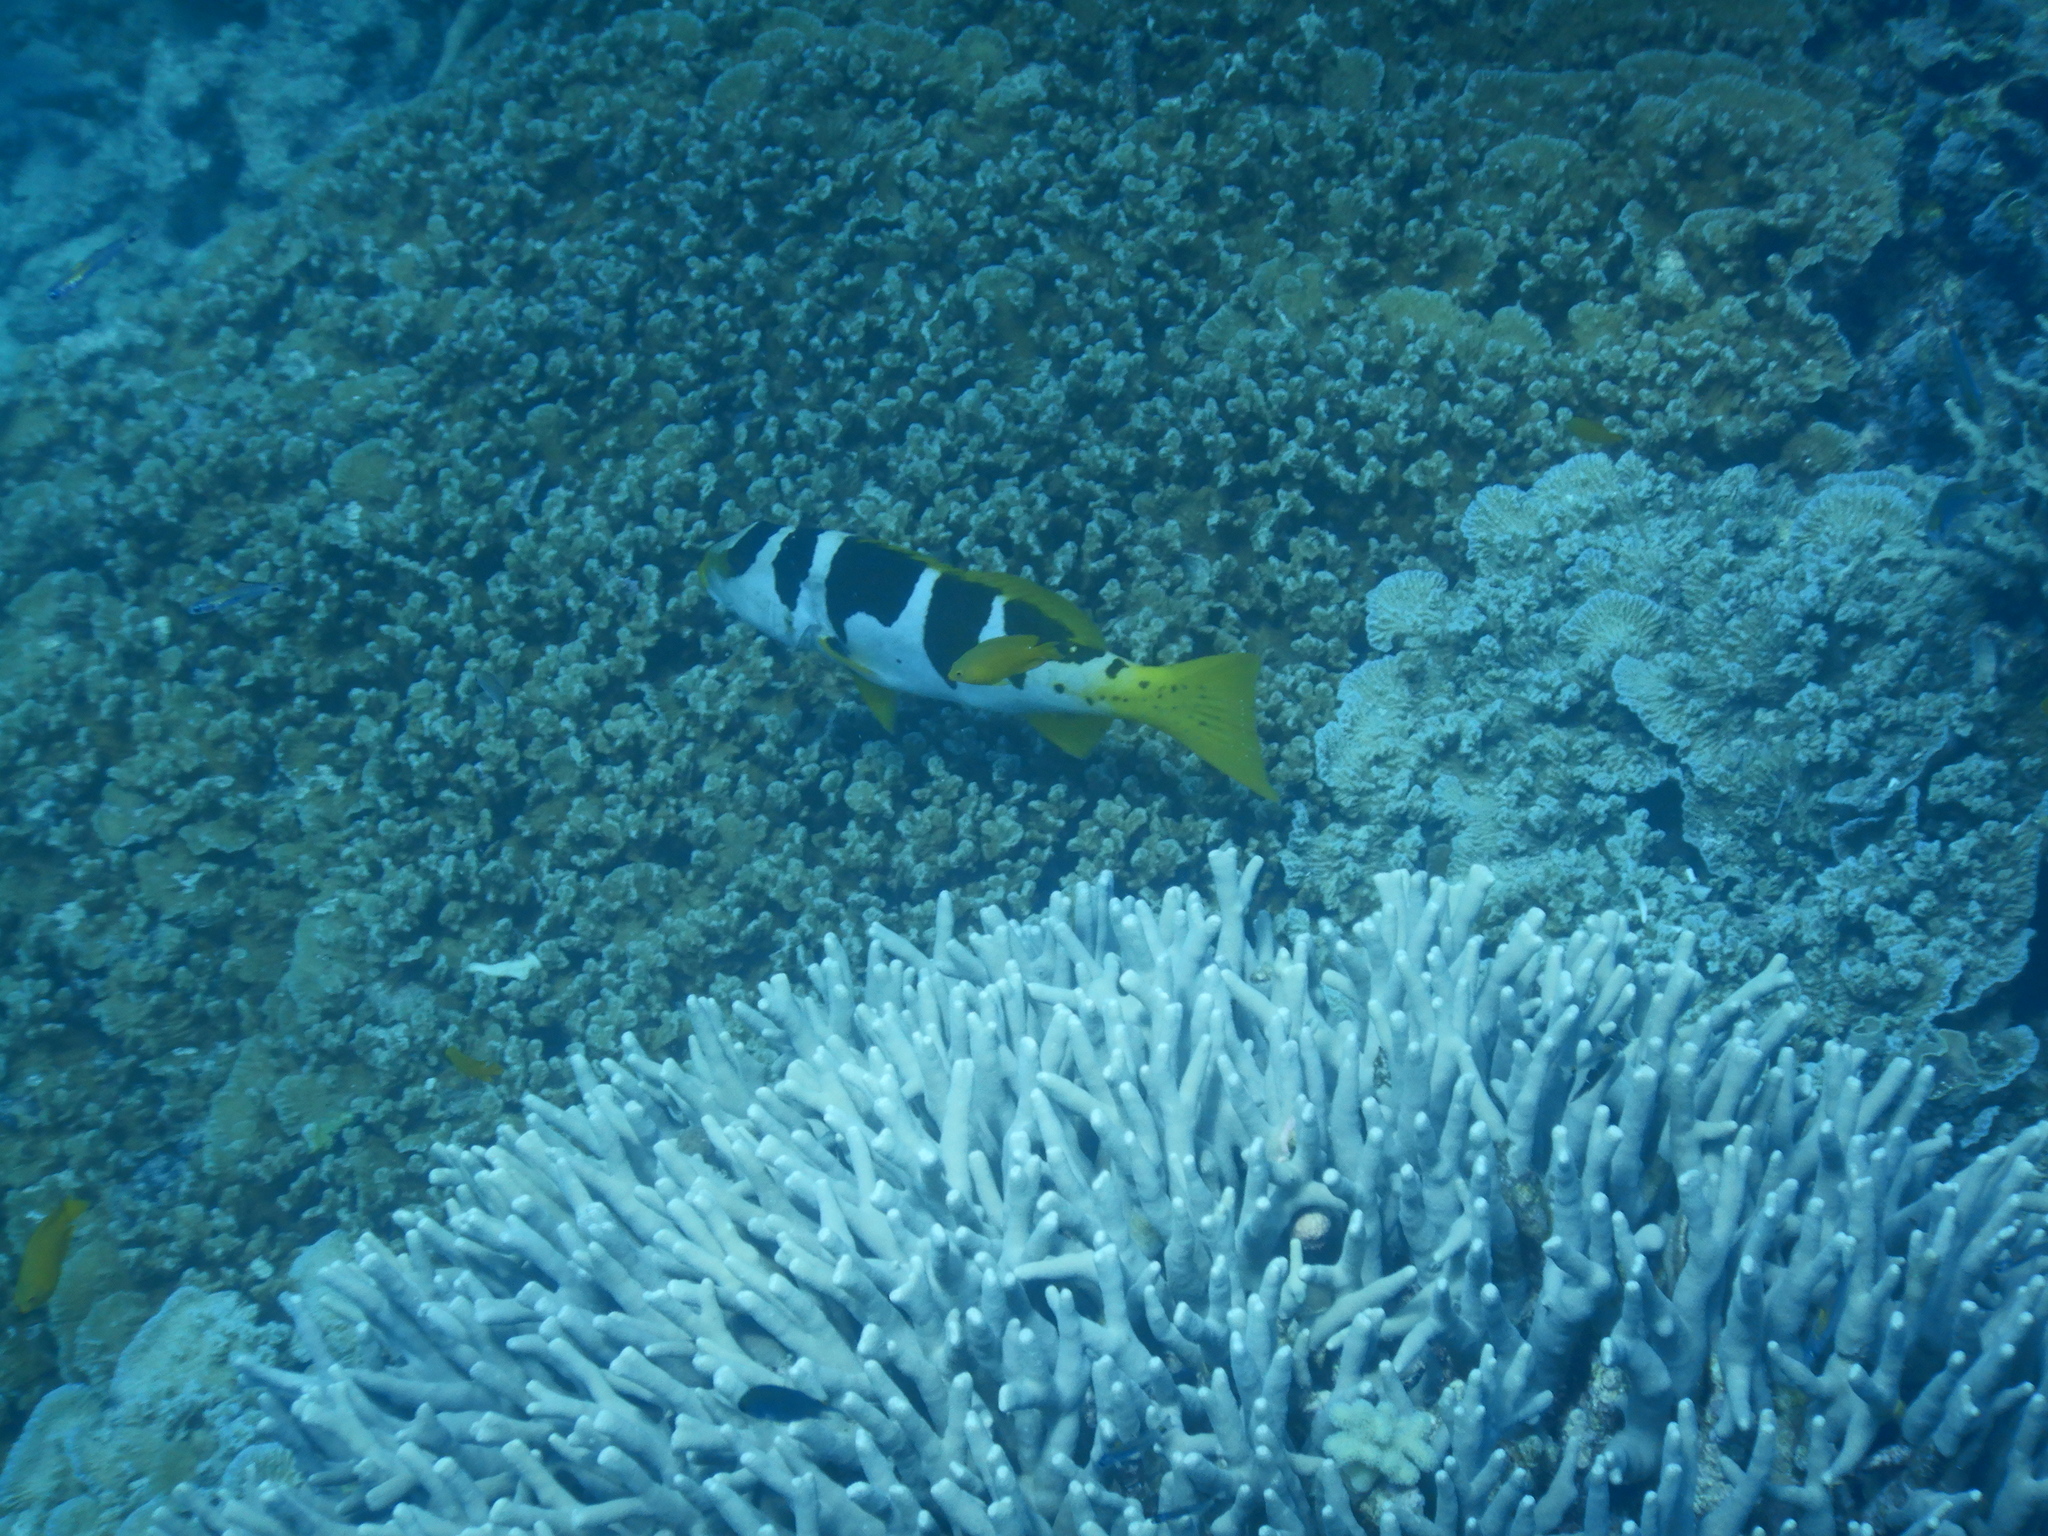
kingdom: Animalia
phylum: Chordata
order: Perciformes
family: Serranidae
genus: Plectropomus
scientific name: Plectropomus laevis
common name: Chinese footballer
